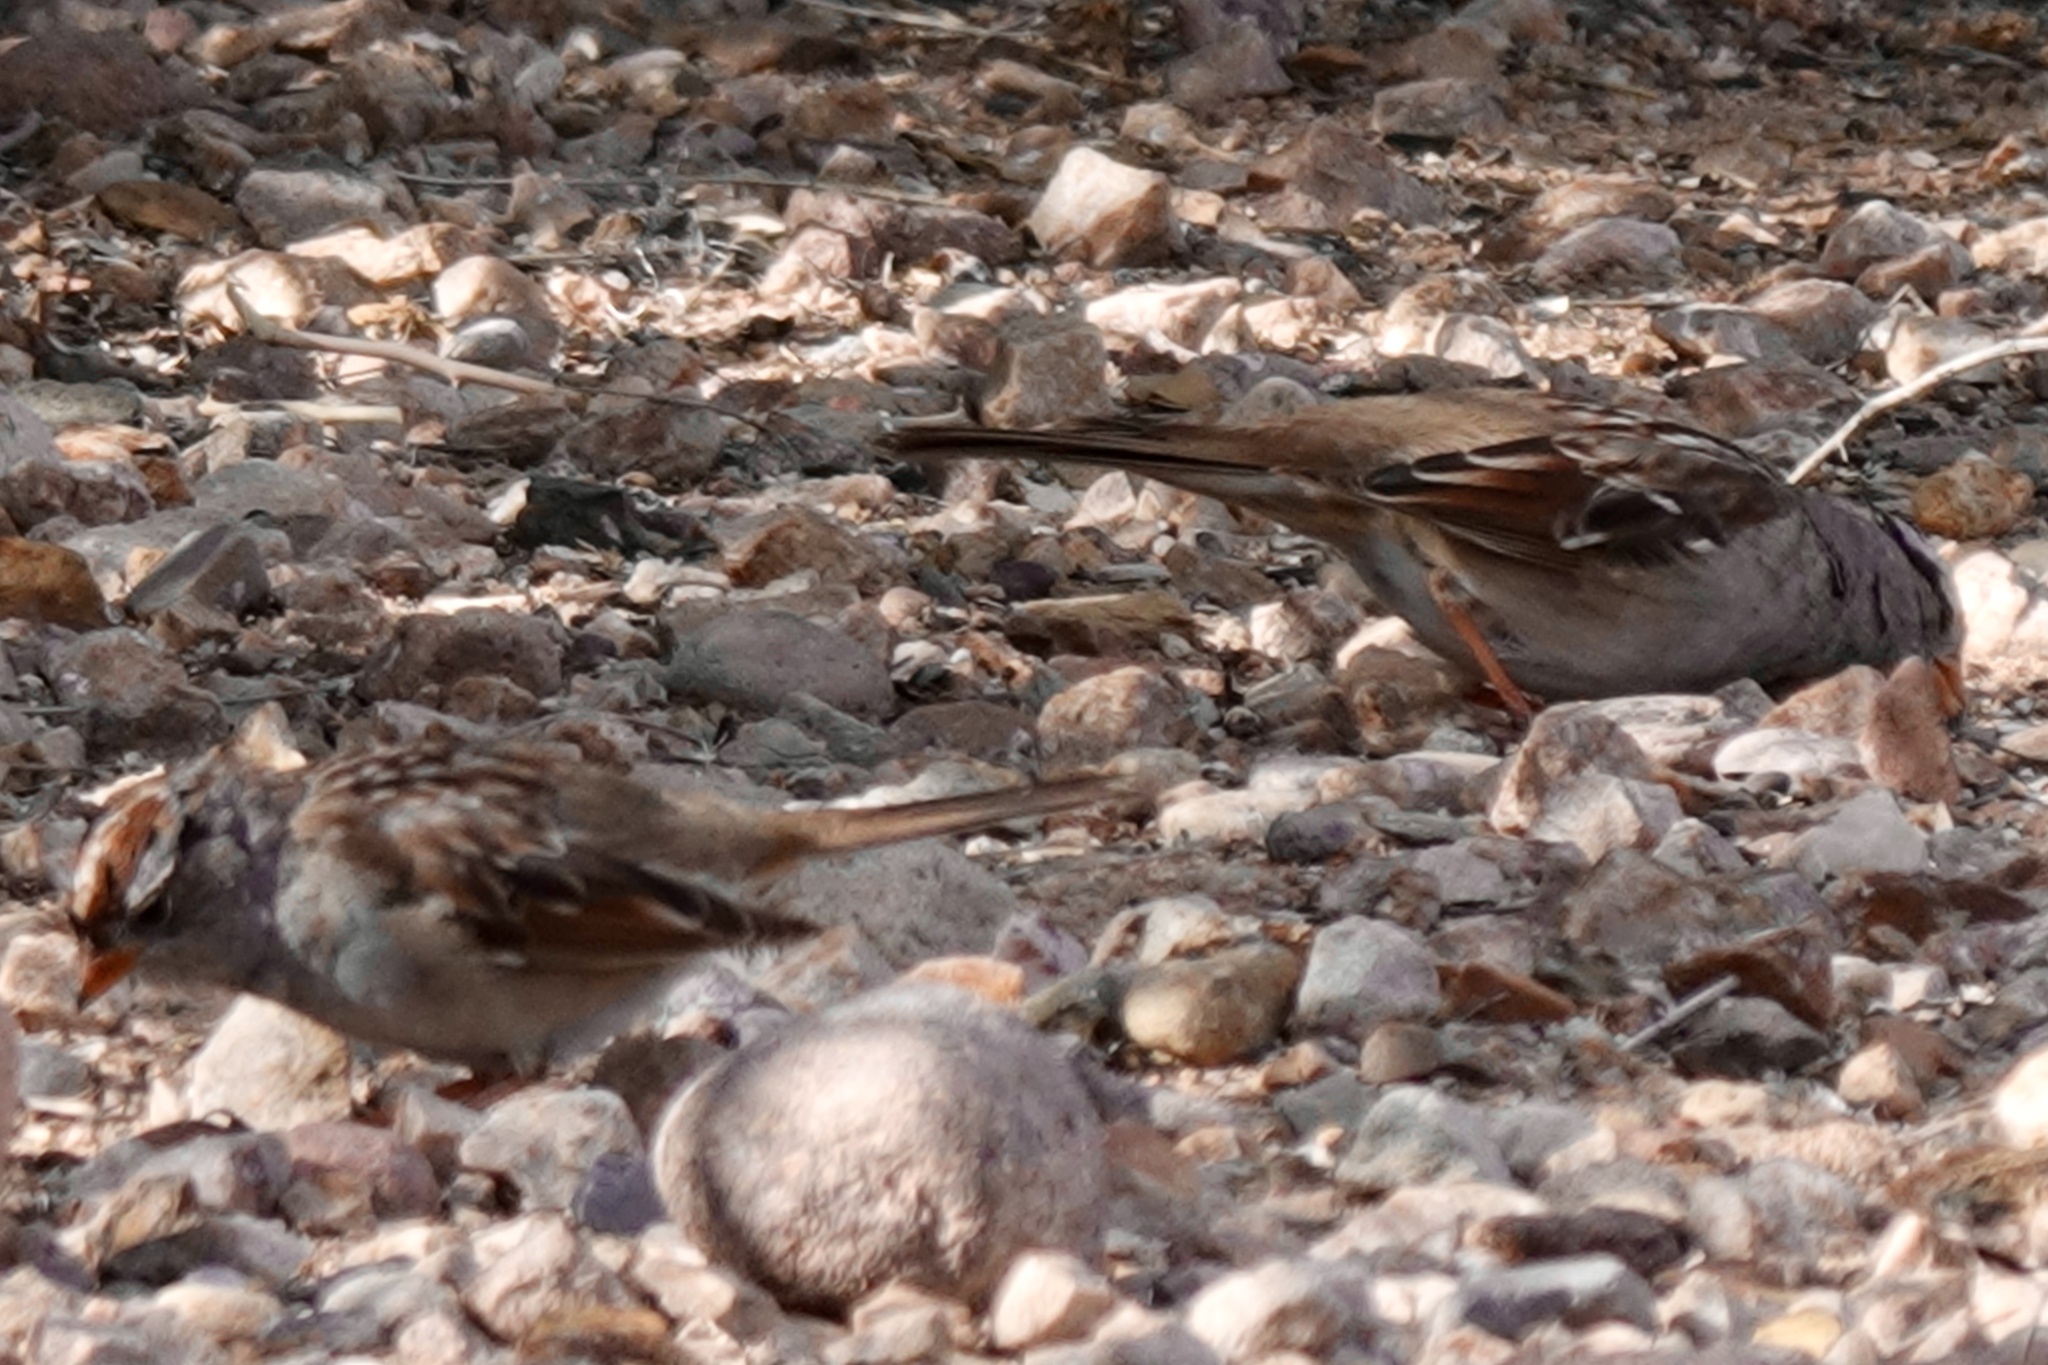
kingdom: Animalia
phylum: Chordata
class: Aves
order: Passeriformes
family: Passerellidae
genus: Zonotrichia
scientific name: Zonotrichia leucophrys
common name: White-crowned sparrow
